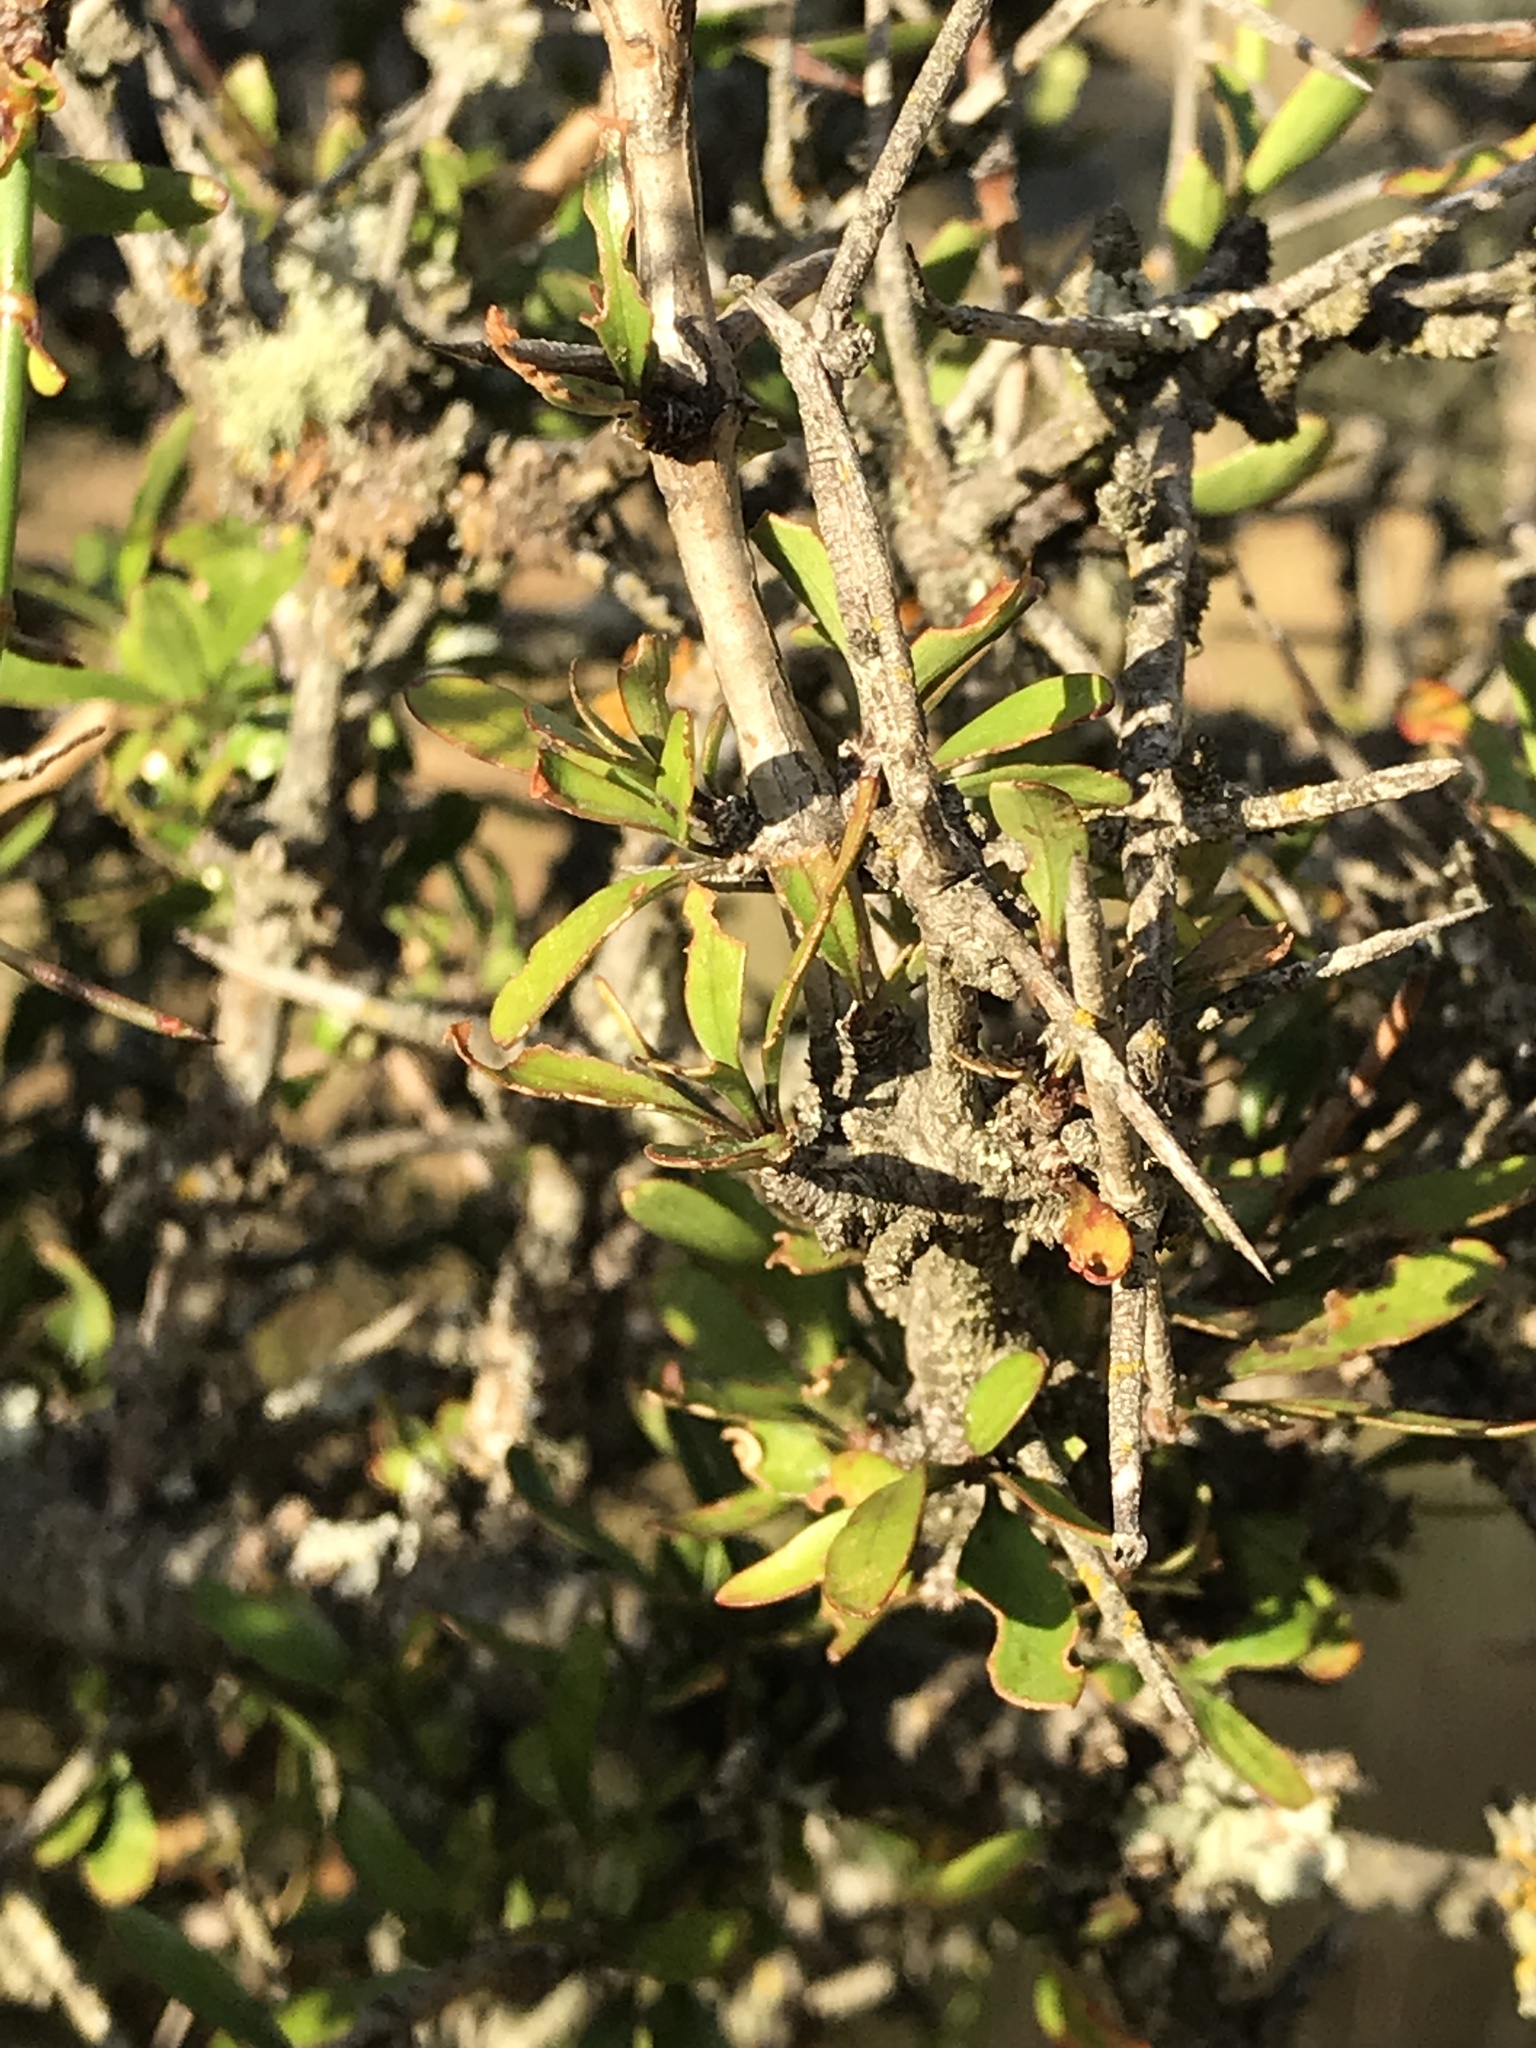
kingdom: Plantae
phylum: Tracheophyta
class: Magnoliopsida
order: Rosales
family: Rhamnaceae
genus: Discaria
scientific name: Discaria toumatou
